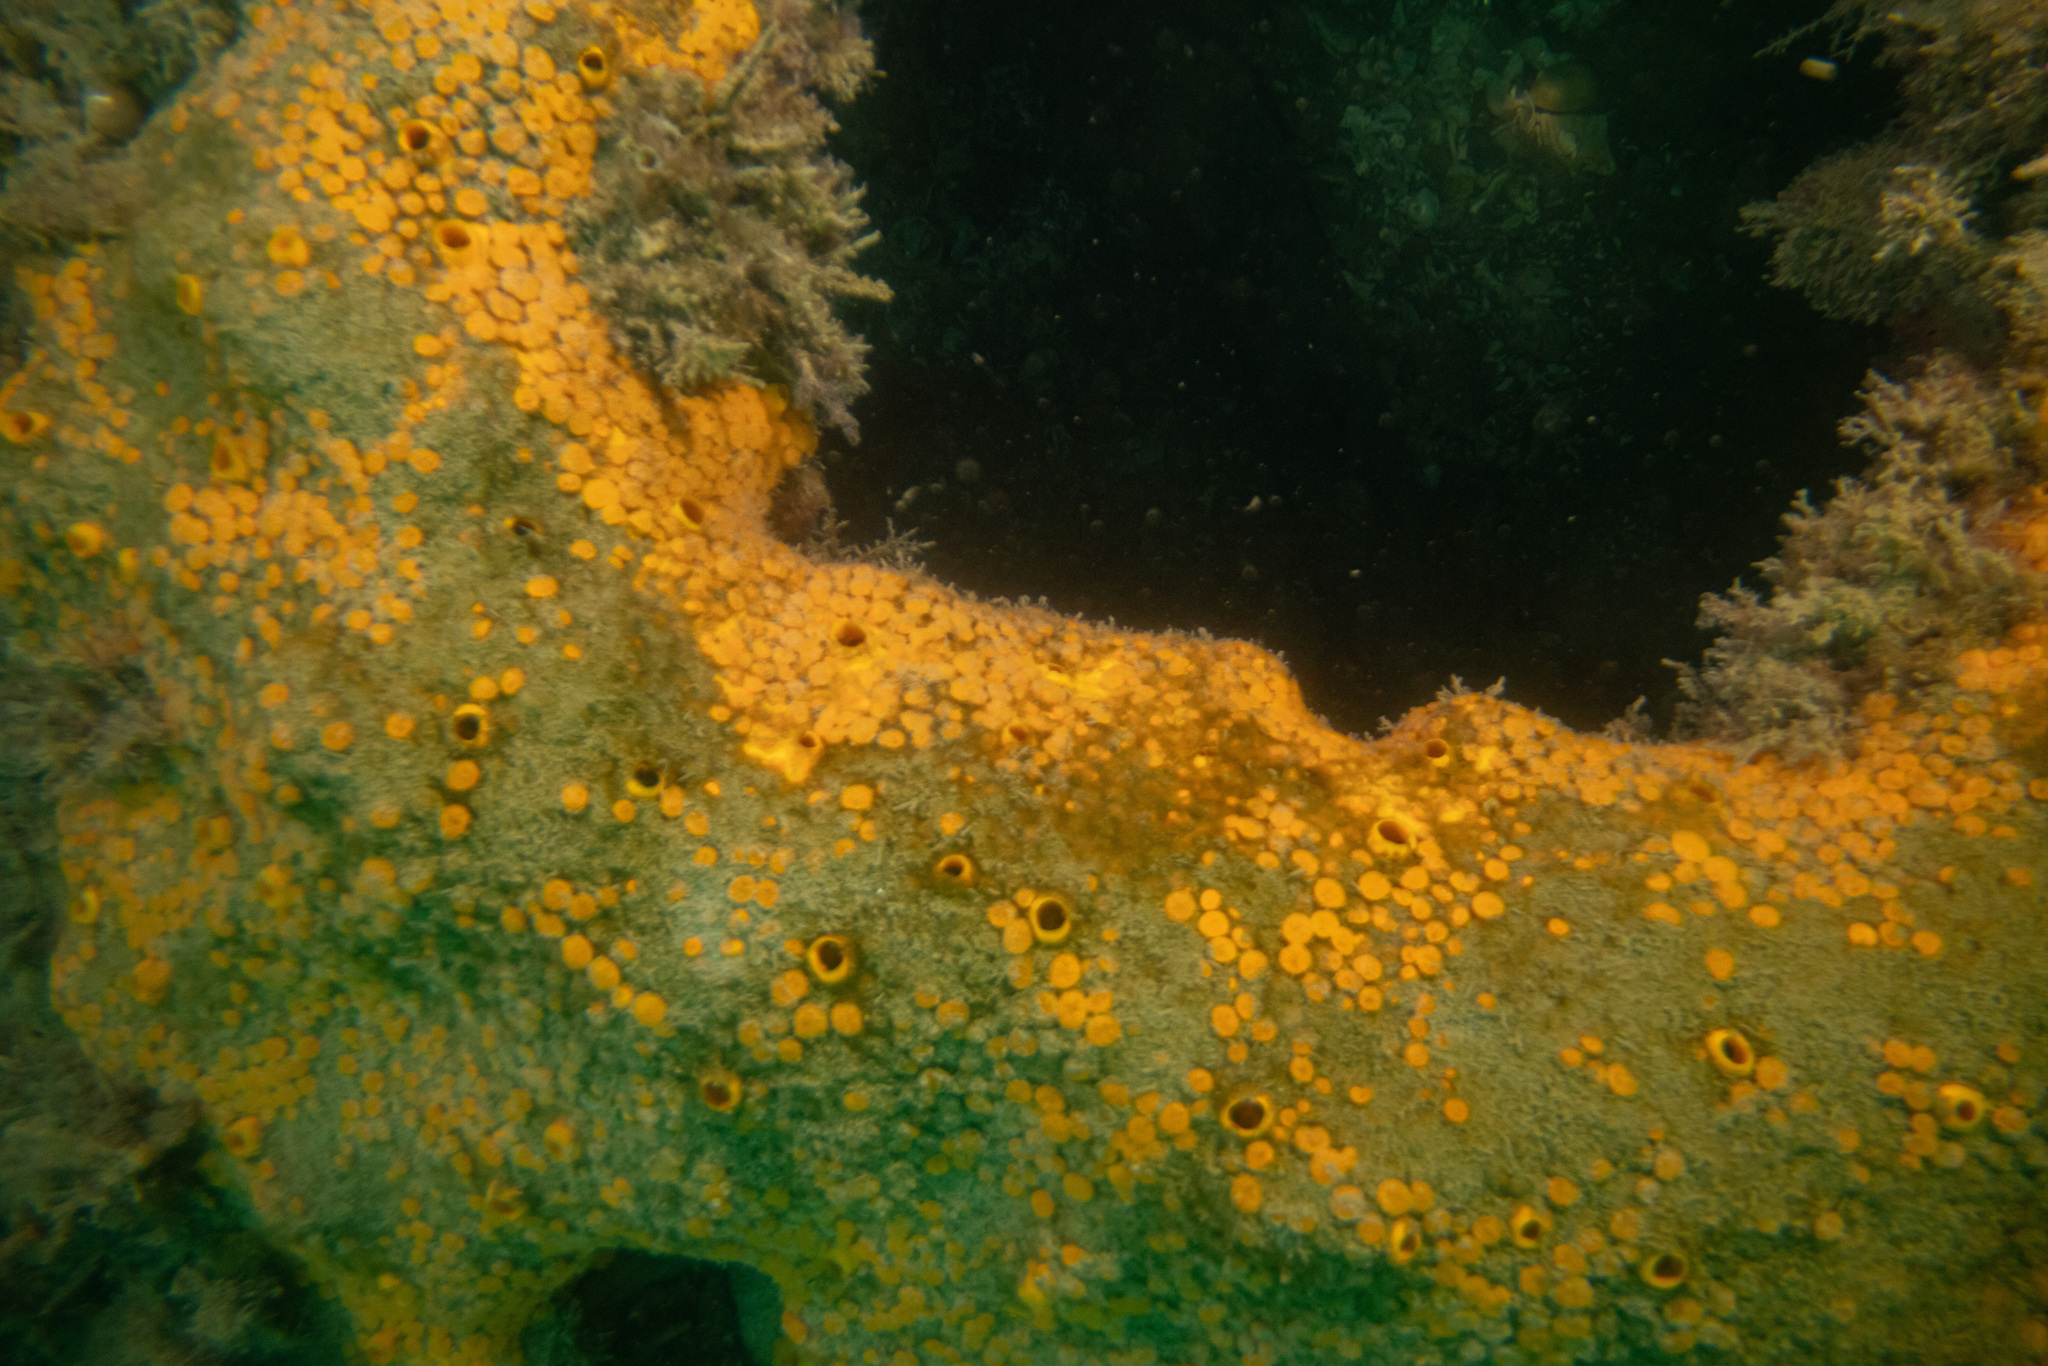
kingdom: Animalia
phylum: Porifera
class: Demospongiae
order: Clionaida
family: Clionaidae
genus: Cliona
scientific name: Cliona celata
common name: Boring sponge
